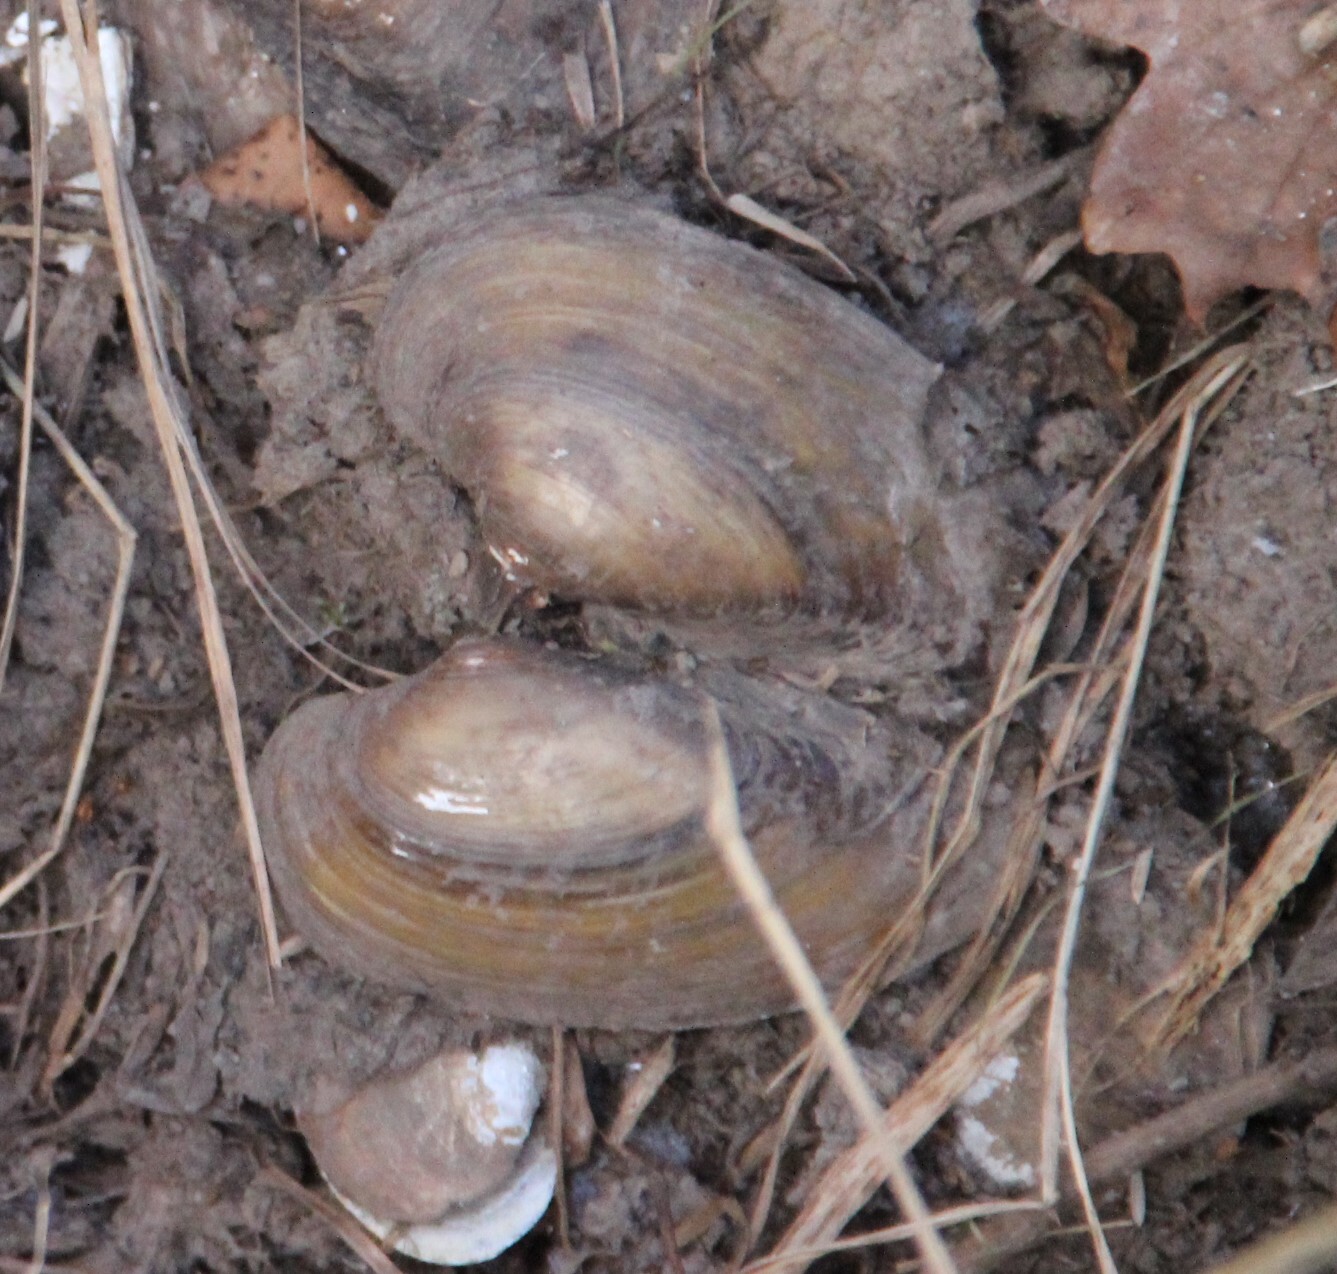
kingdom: Animalia
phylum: Mollusca
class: Bivalvia
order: Unionida
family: Unionidae
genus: Unio
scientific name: Unio tumidus
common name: Swollen river mussel
